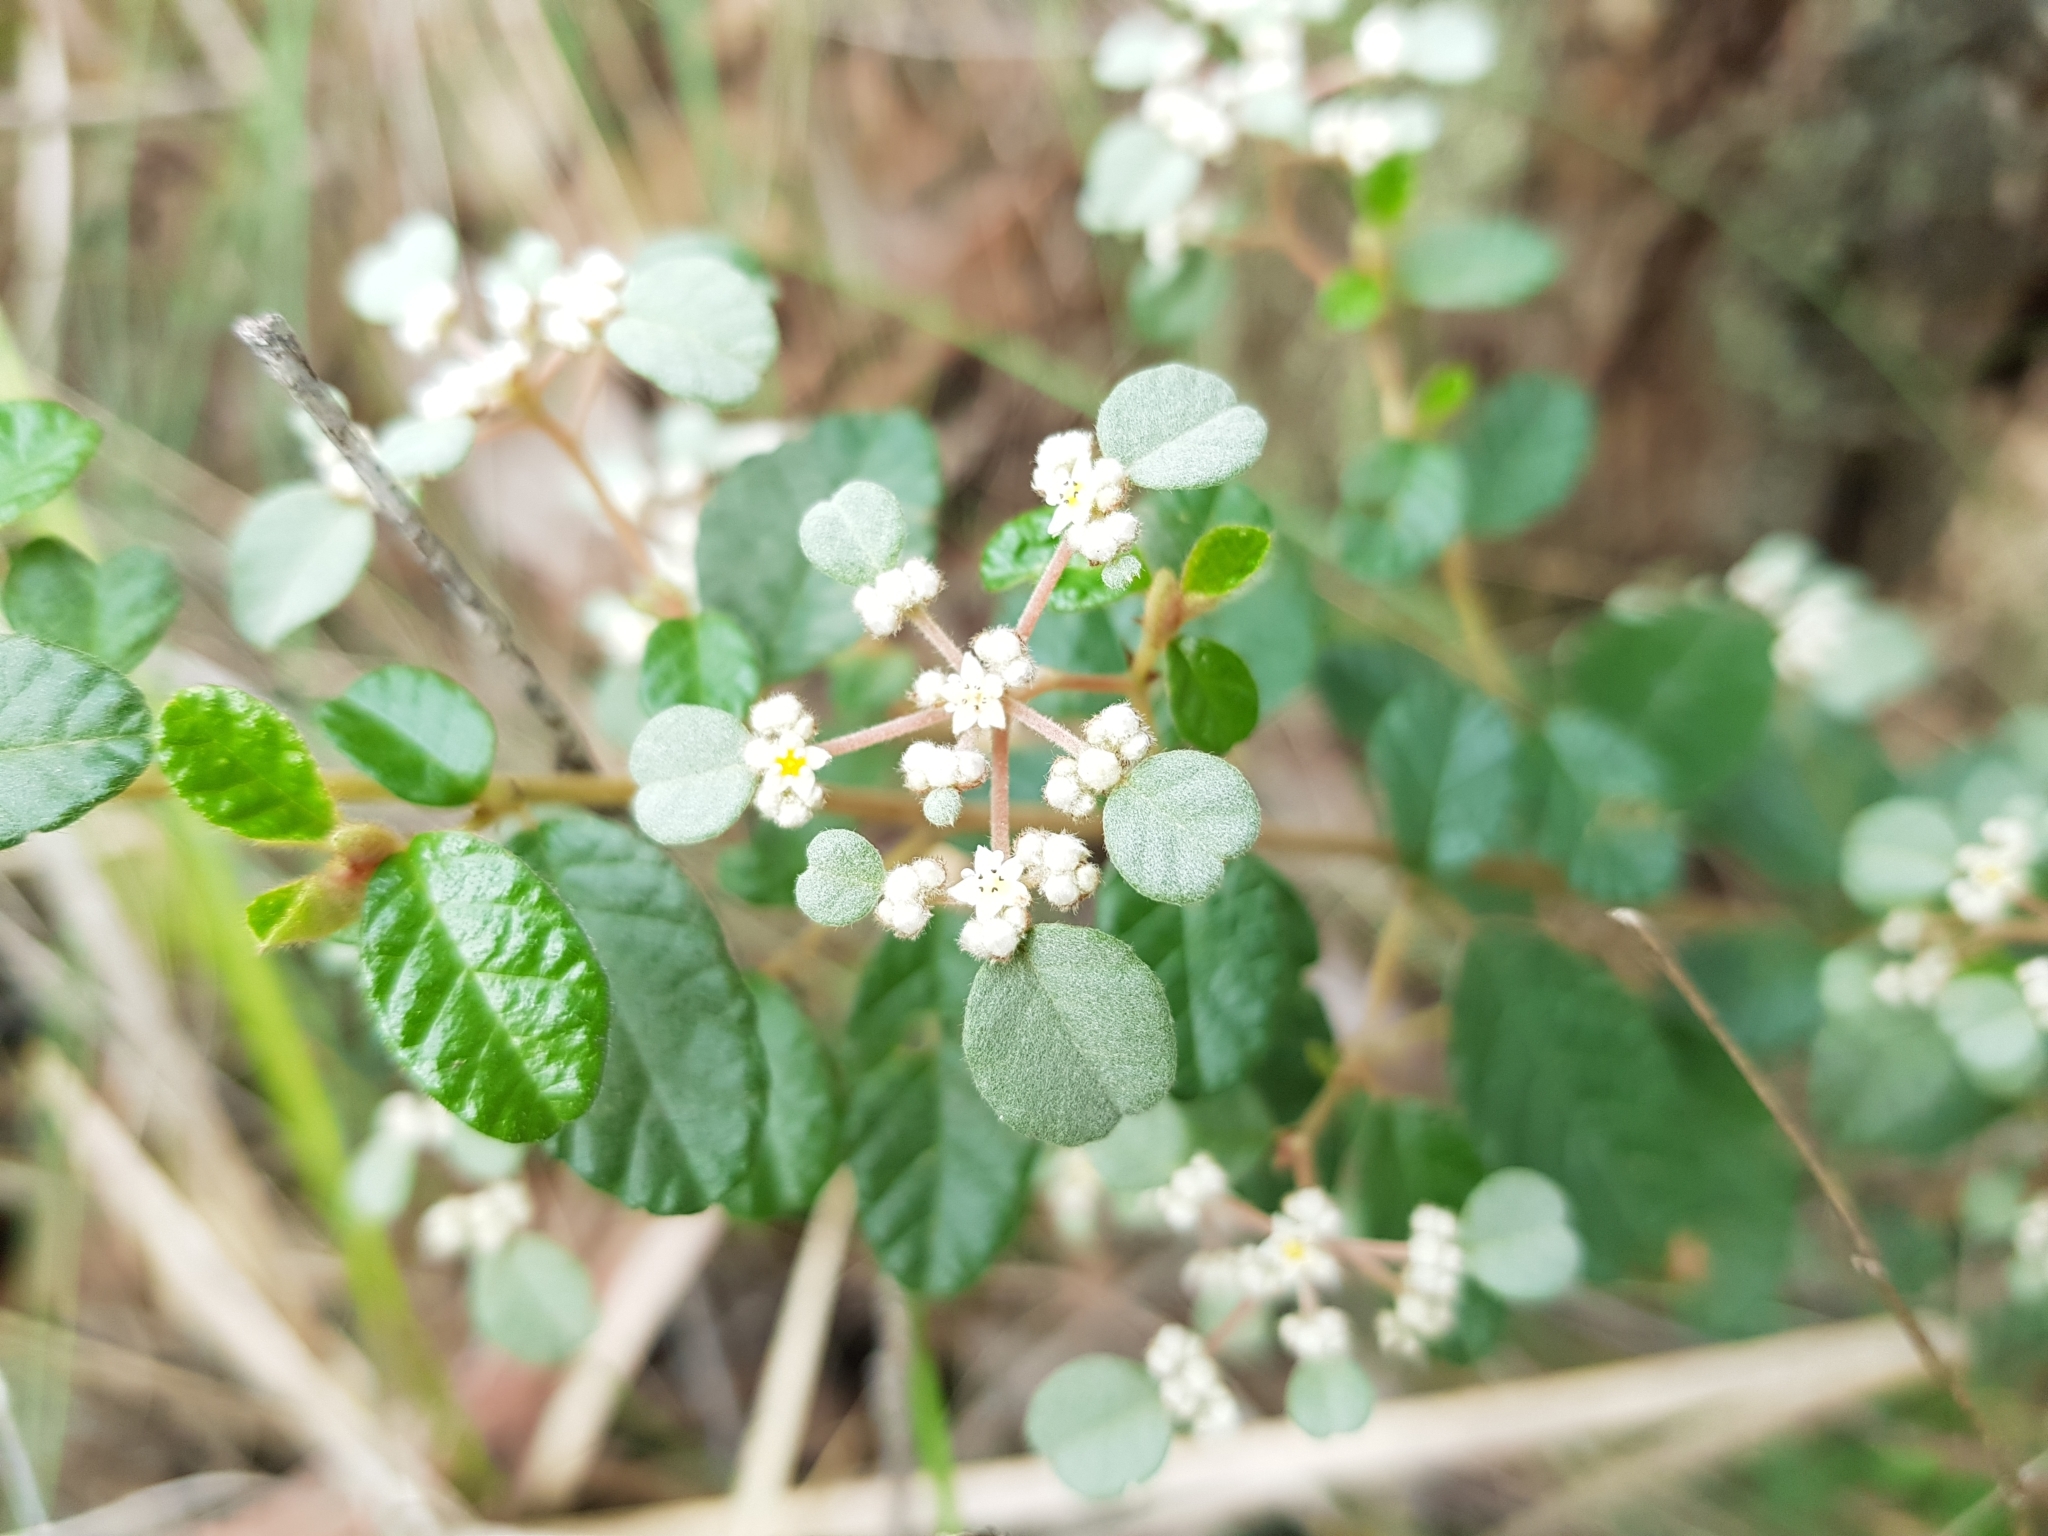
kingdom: Plantae
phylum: Tracheophyta
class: Magnoliopsida
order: Rosales
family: Rhamnaceae
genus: Spyridium
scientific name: Spyridium parvifolium
